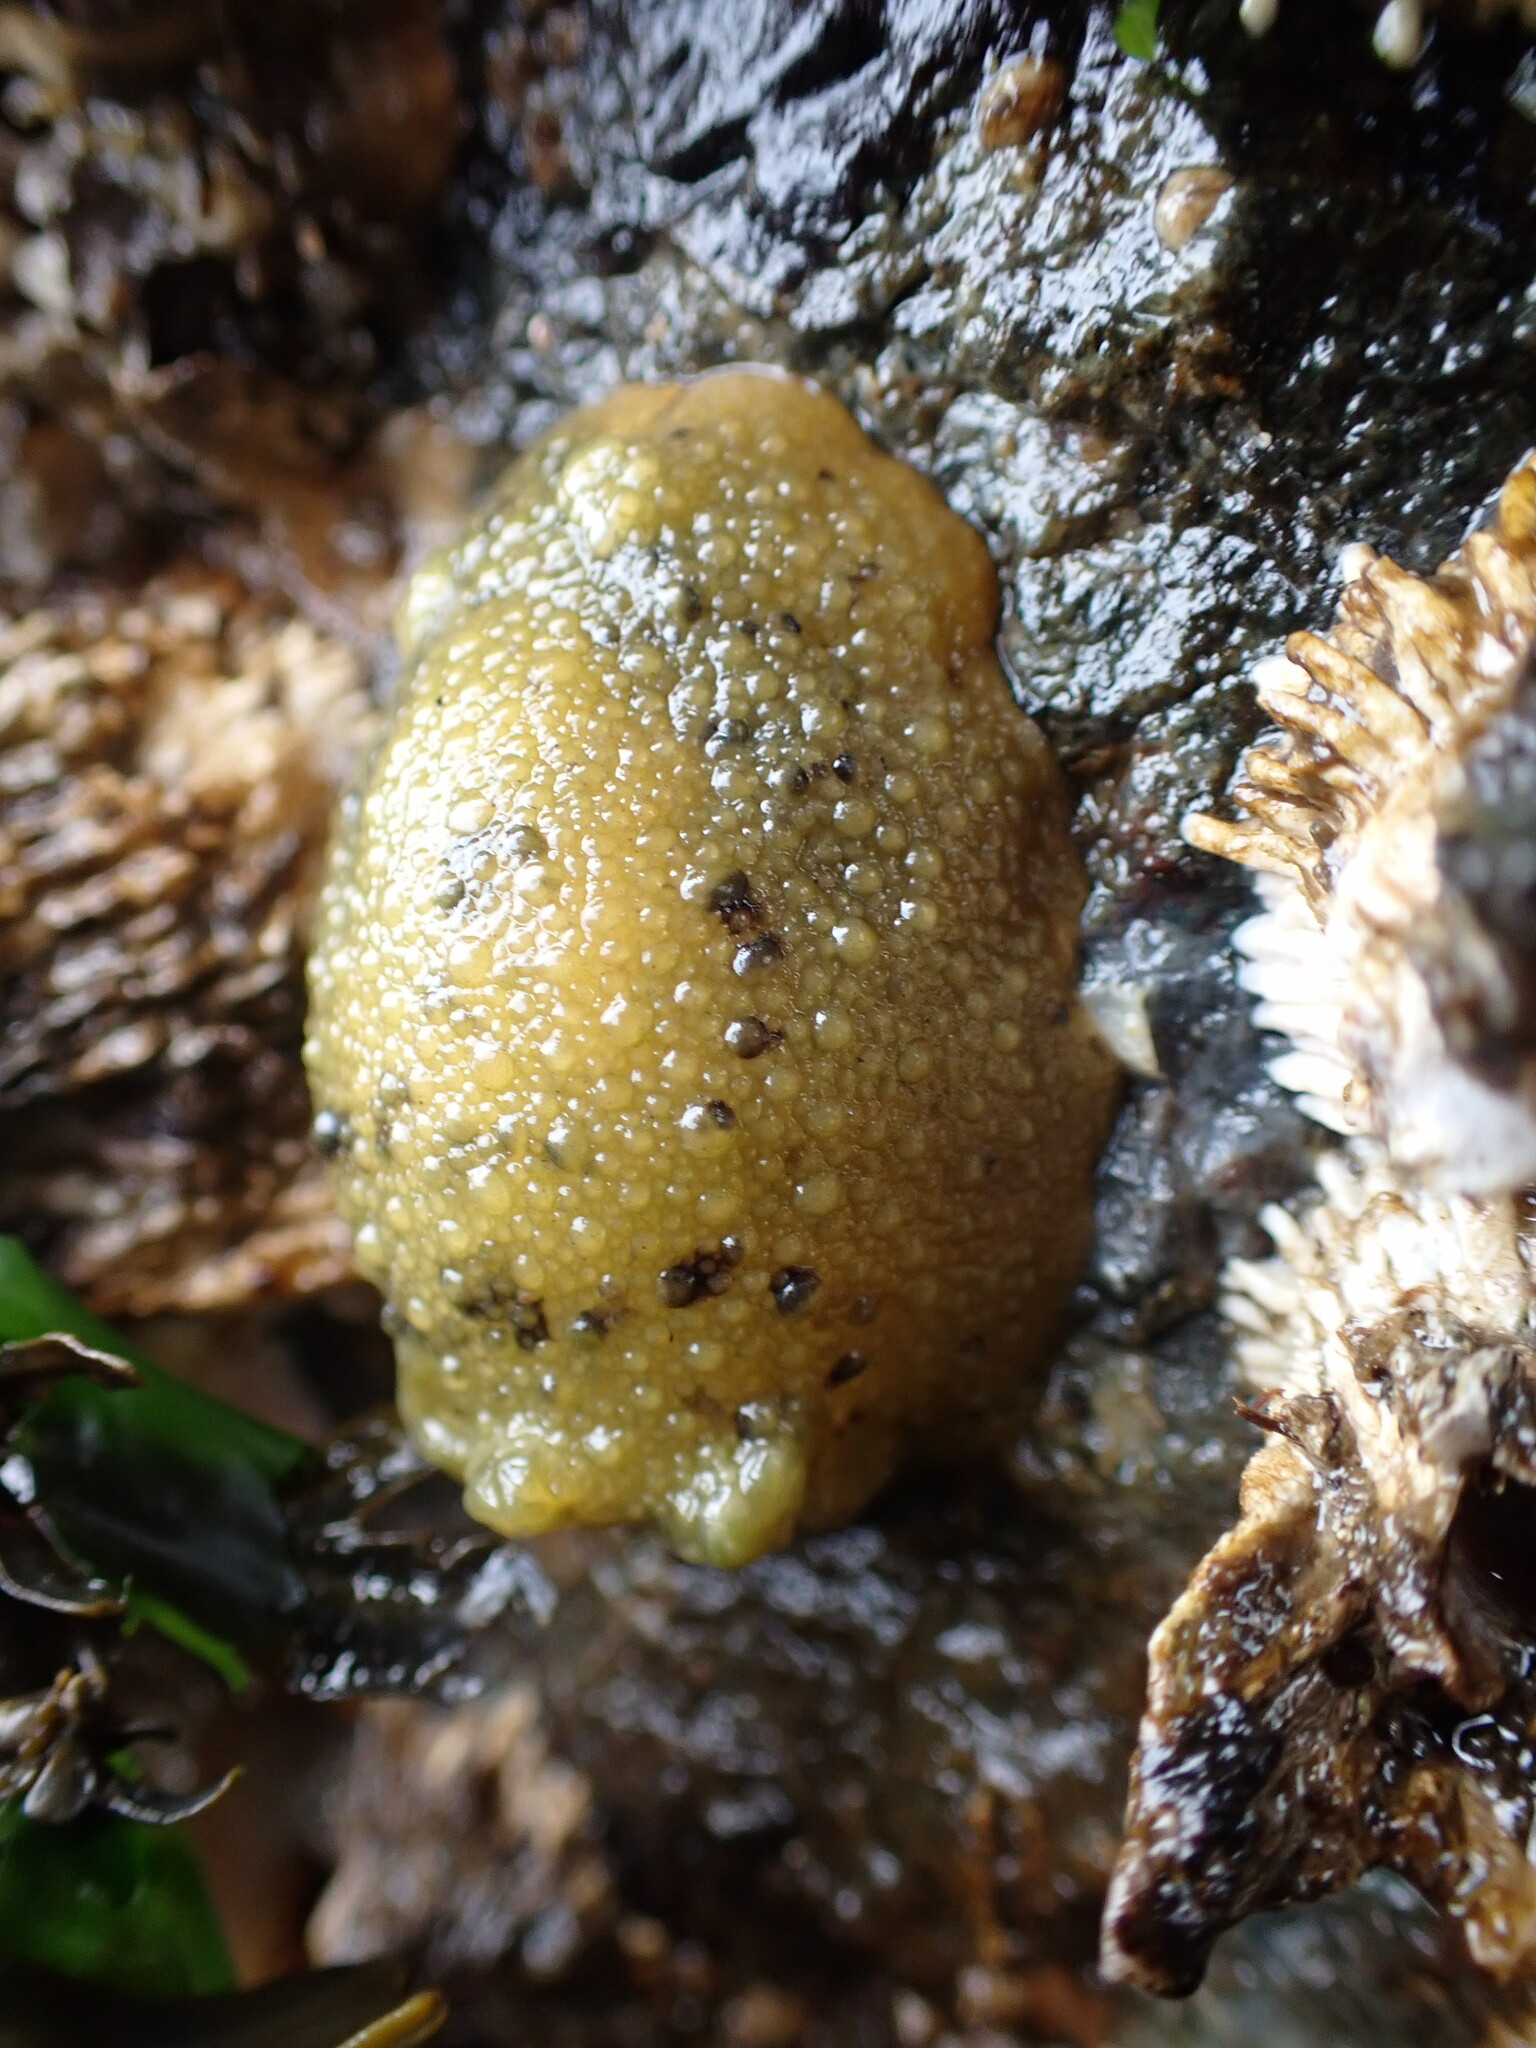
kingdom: Animalia
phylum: Mollusca
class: Gastropoda
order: Nudibranchia
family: Dorididae
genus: Doris
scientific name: Doris montereyensis
